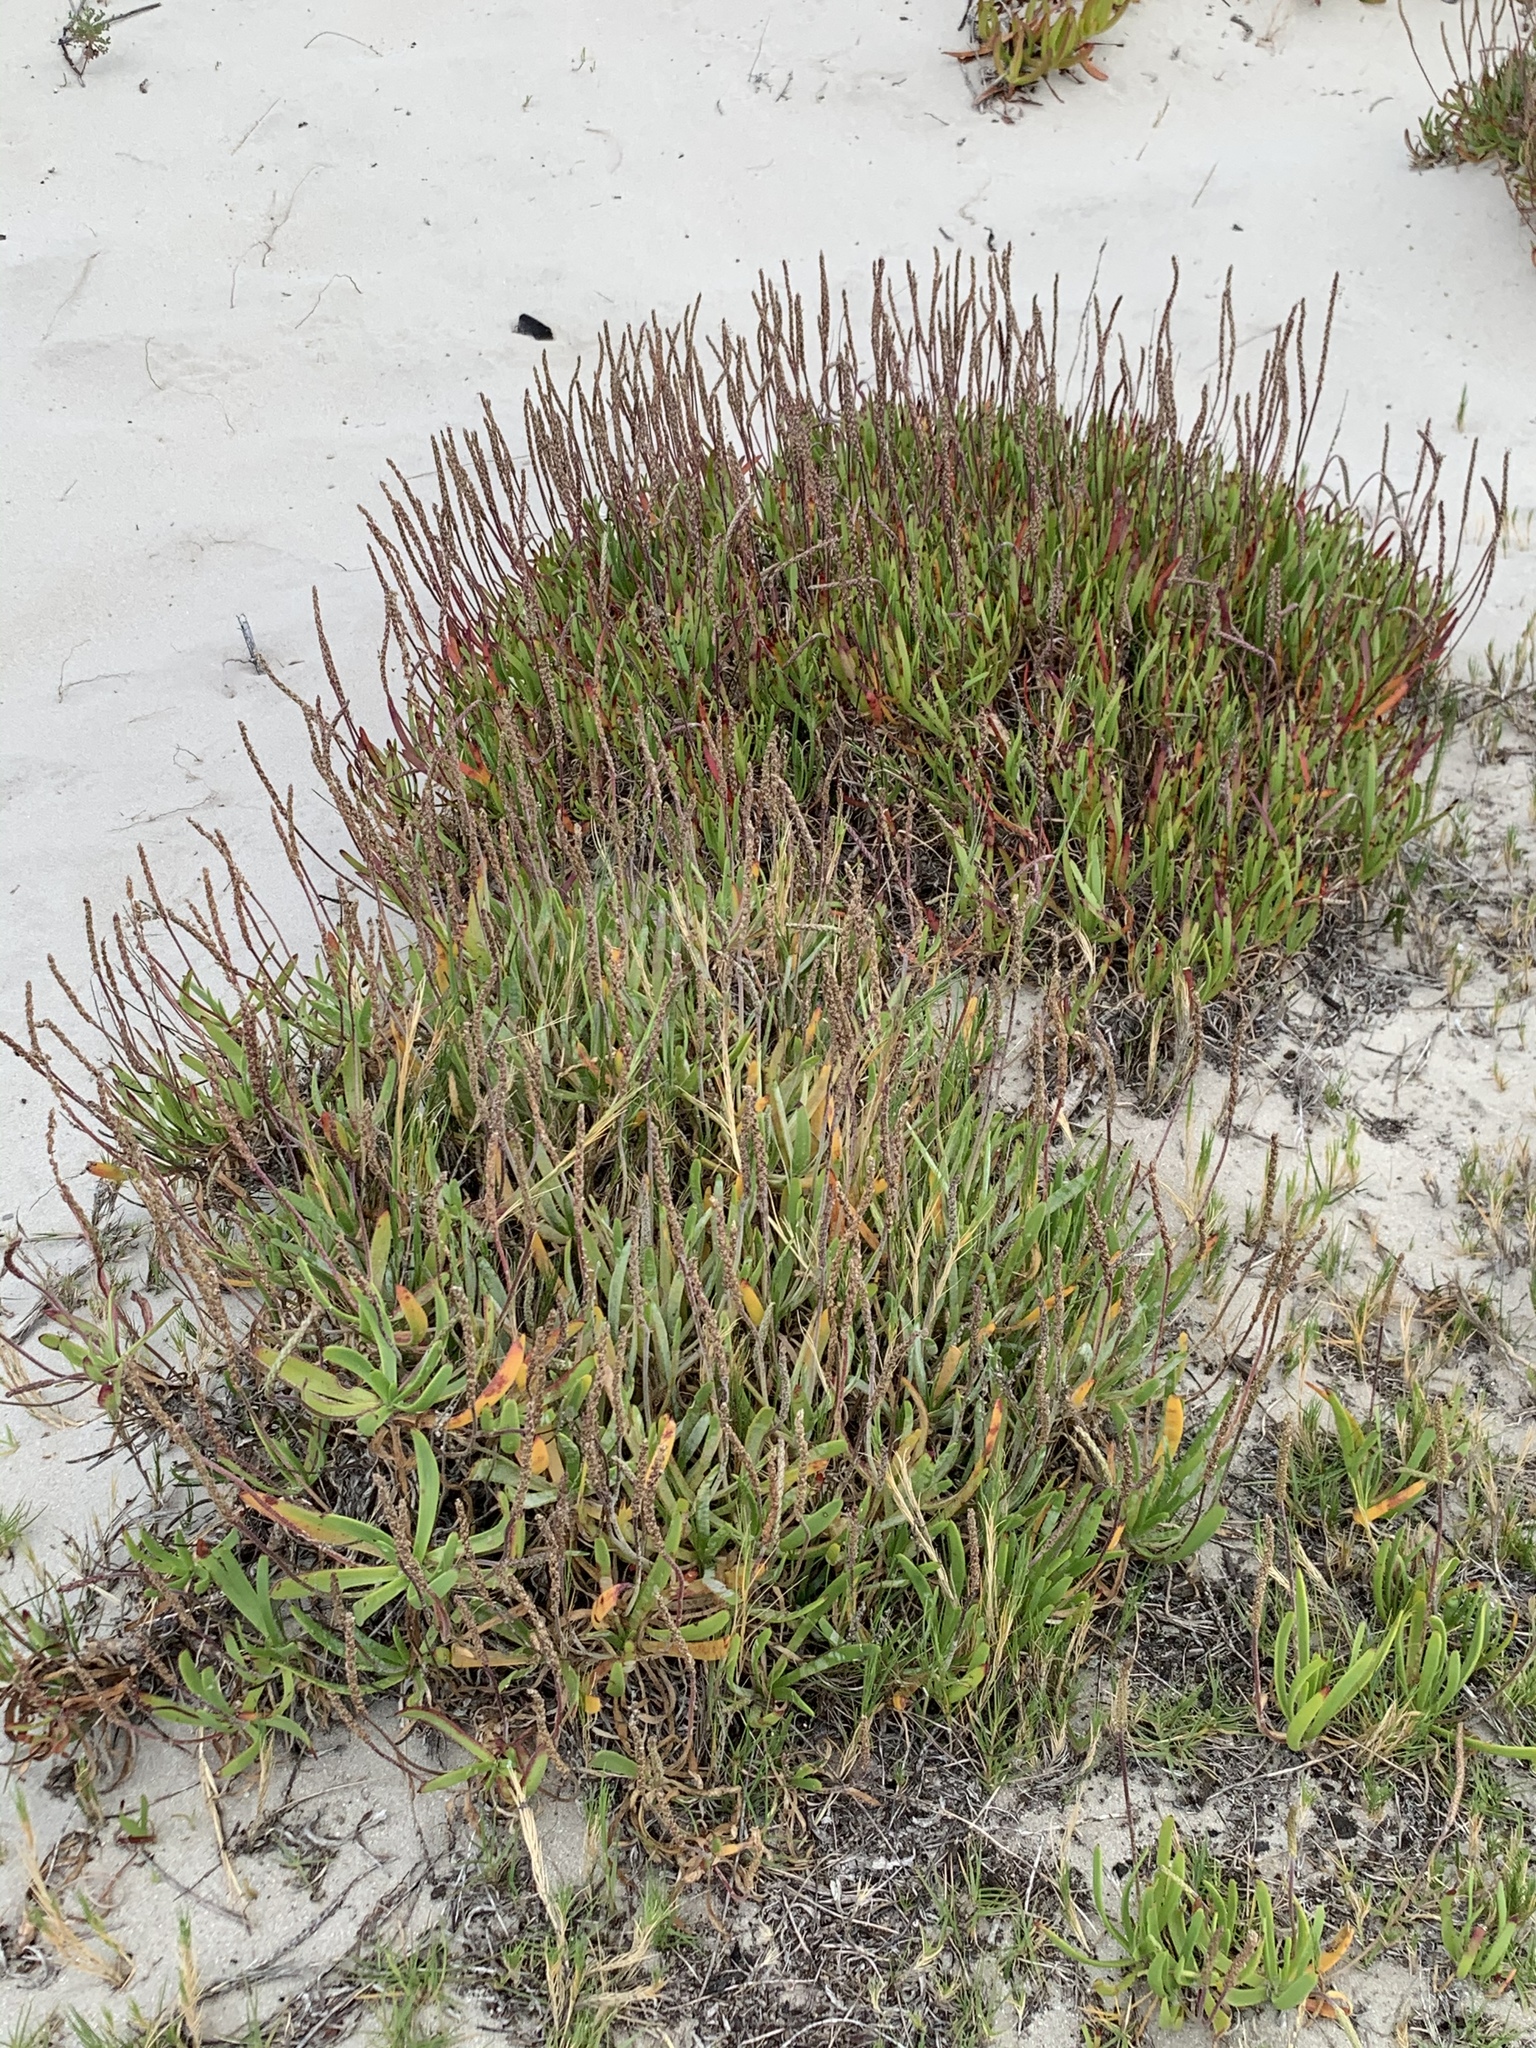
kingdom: Plantae
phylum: Tracheophyta
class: Magnoliopsida
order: Lamiales
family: Plantaginaceae
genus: Plantago
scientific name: Plantago carnosa
